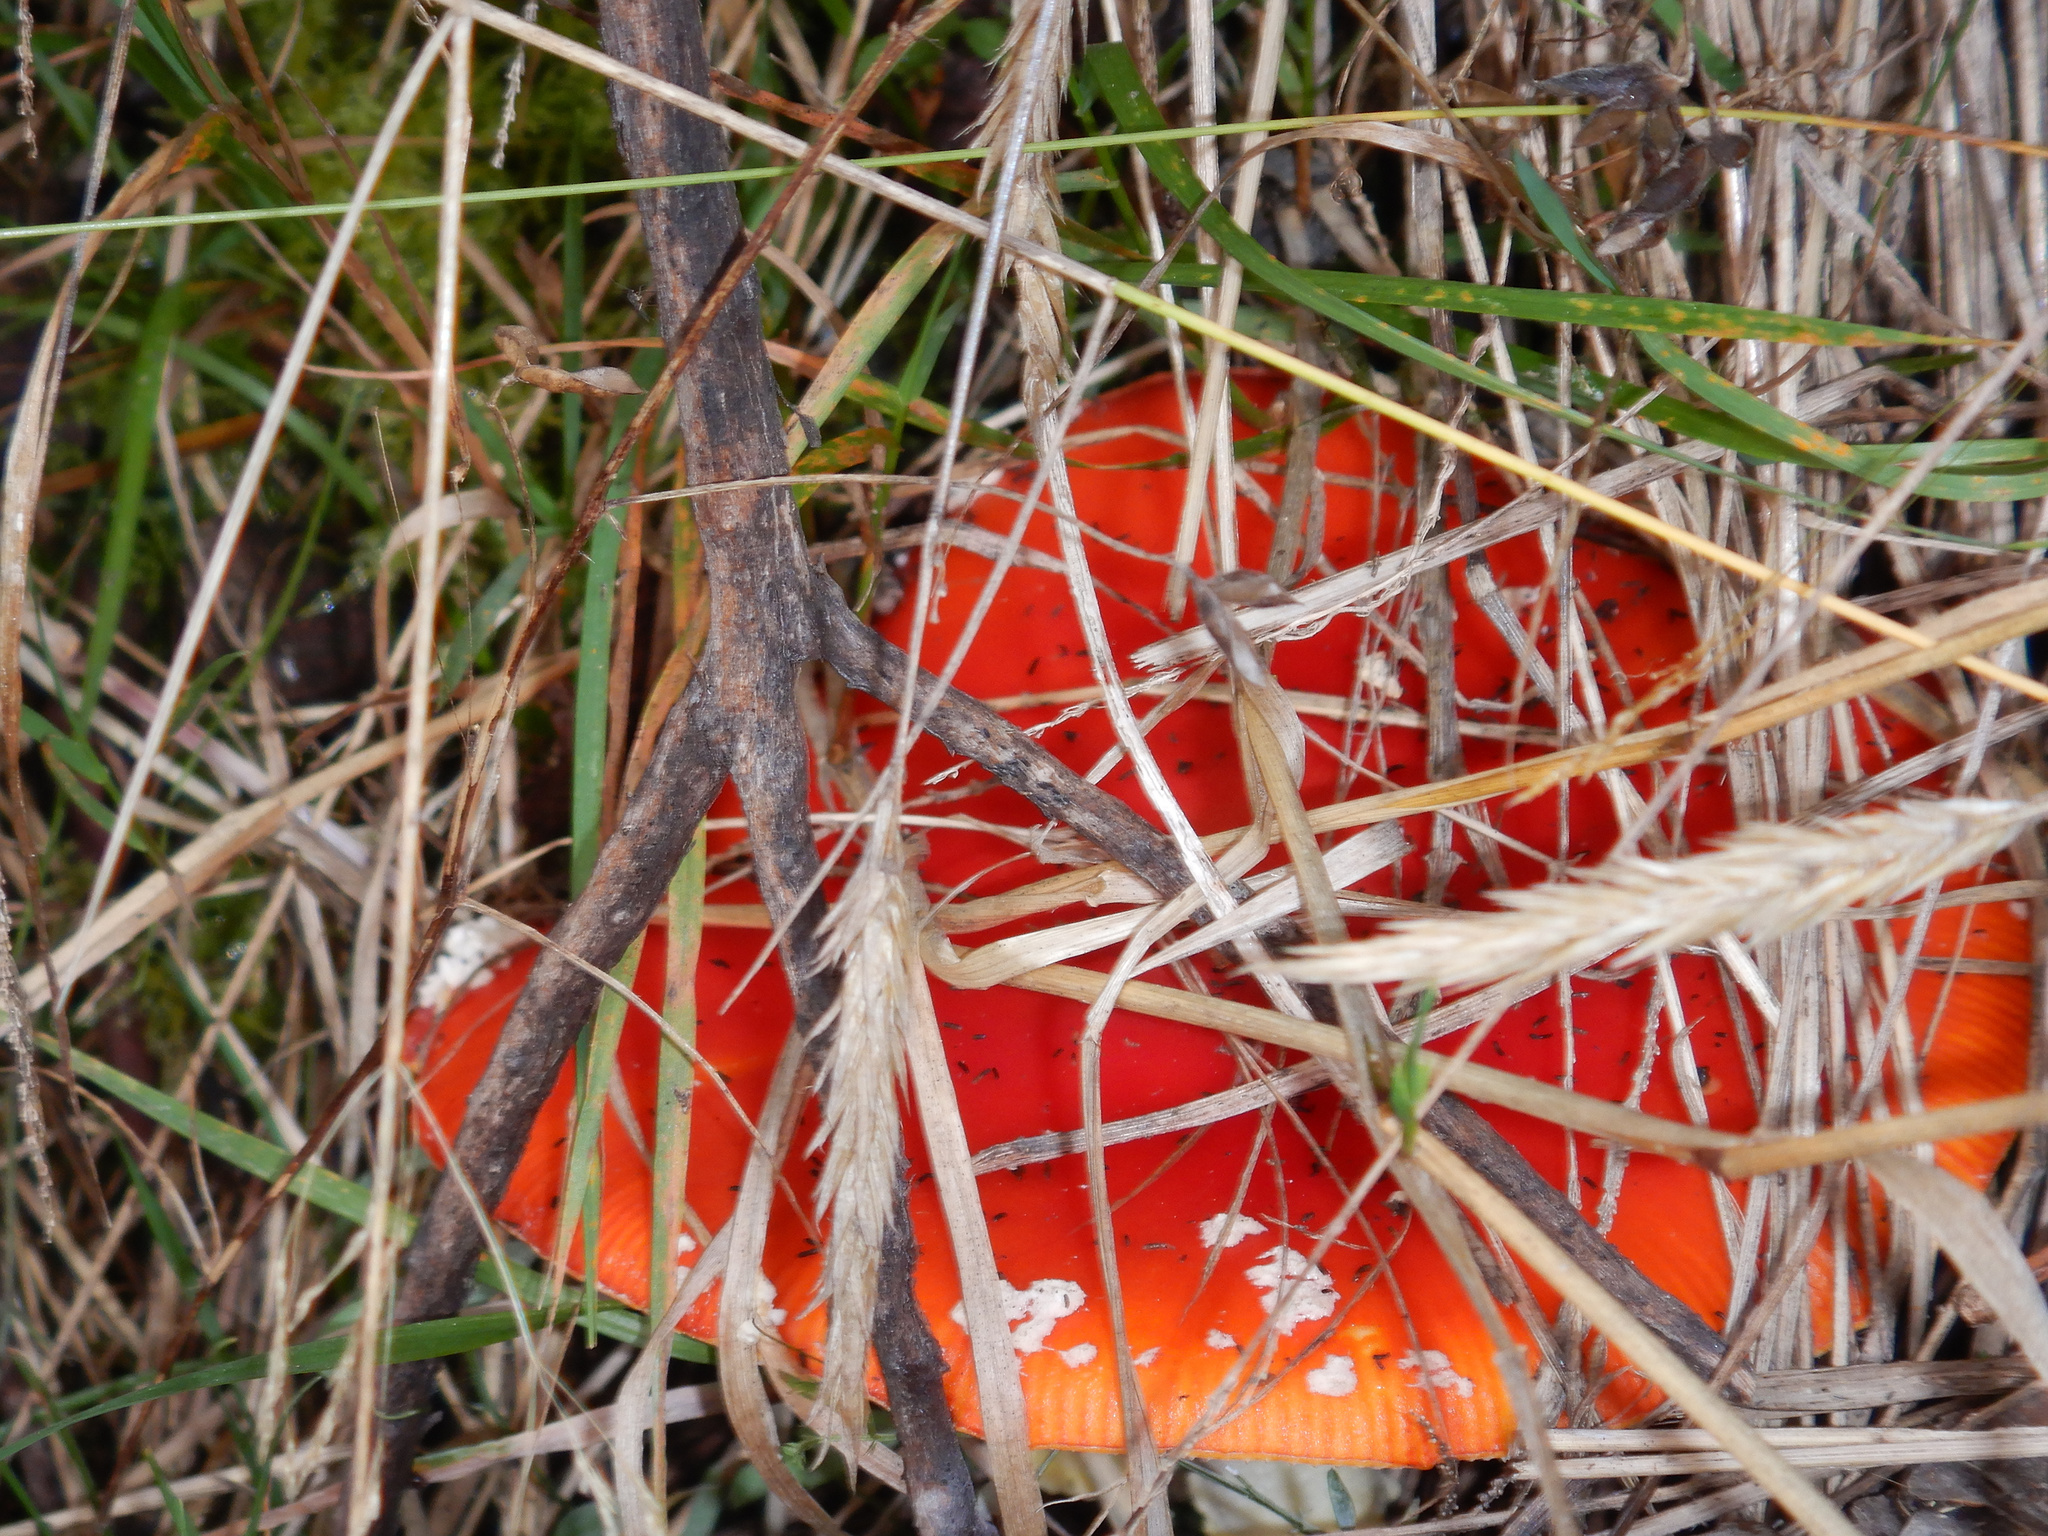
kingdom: Fungi
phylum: Basidiomycota
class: Agaricomycetes
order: Agaricales
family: Amanitaceae
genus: Amanita
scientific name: Amanita muscaria
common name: Fly agaric
